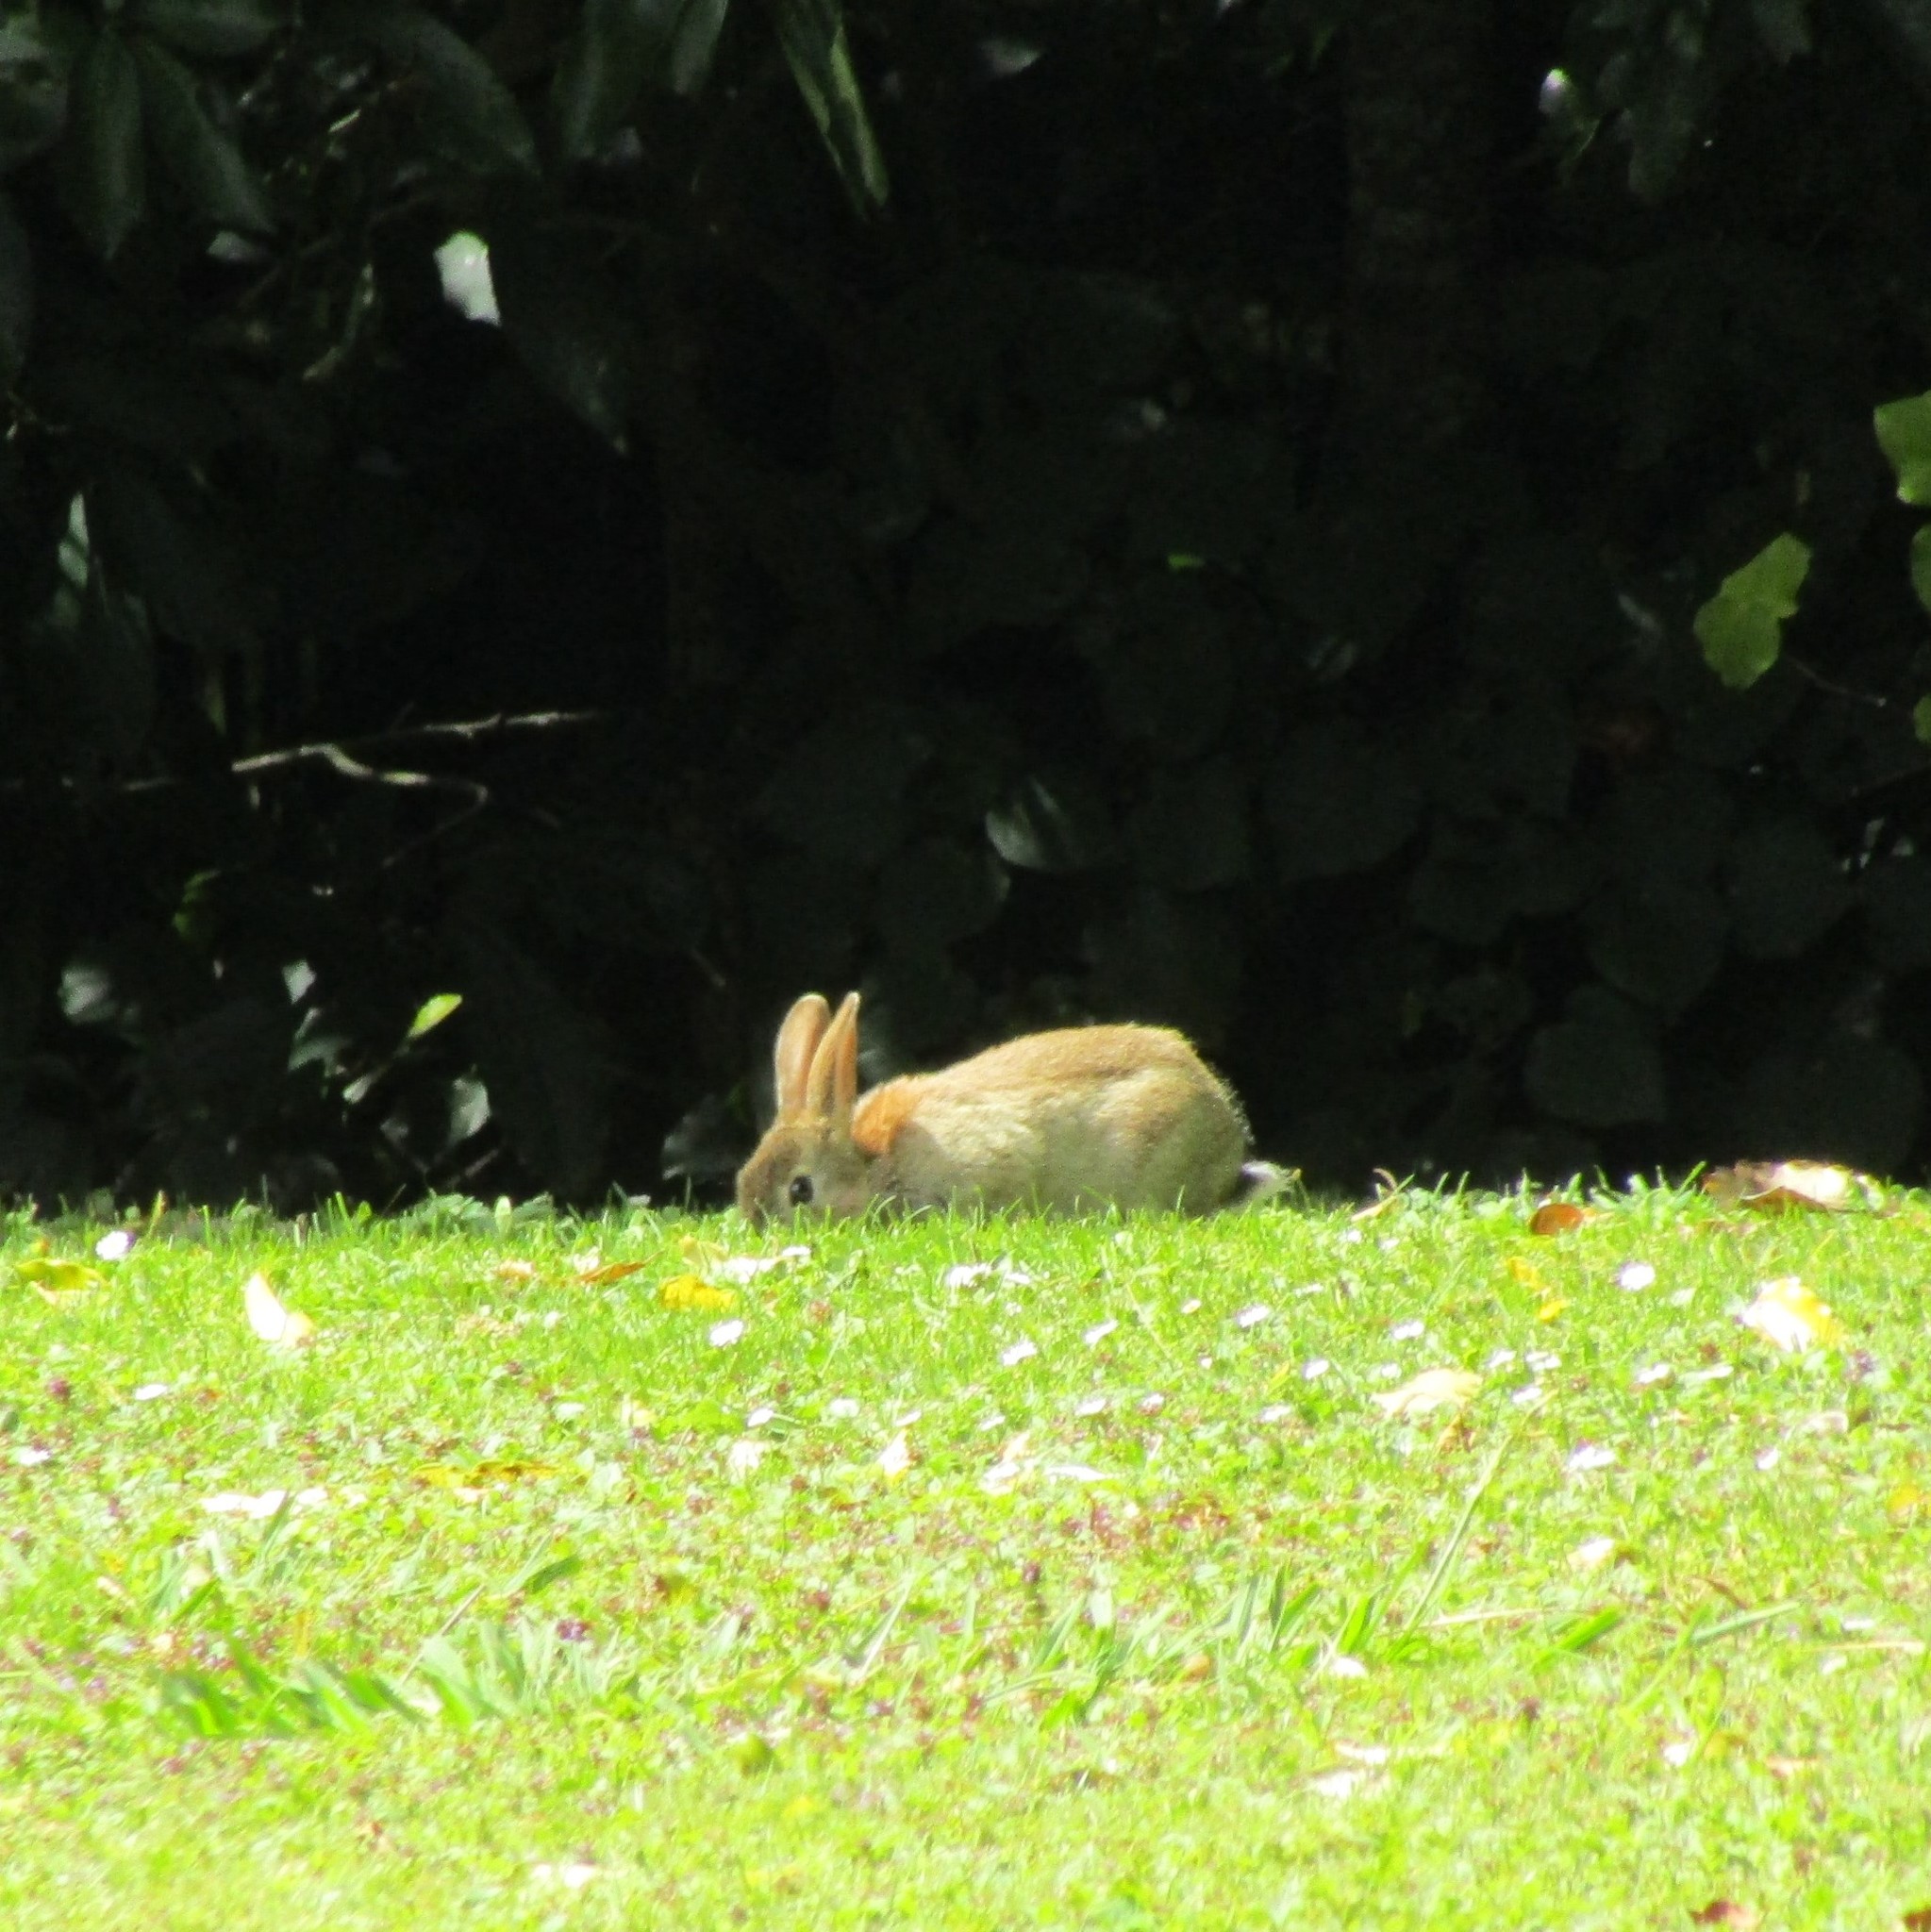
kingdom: Animalia
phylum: Chordata
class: Mammalia
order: Lagomorpha
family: Leporidae
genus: Oryctolagus
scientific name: Oryctolagus cuniculus
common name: European rabbit
